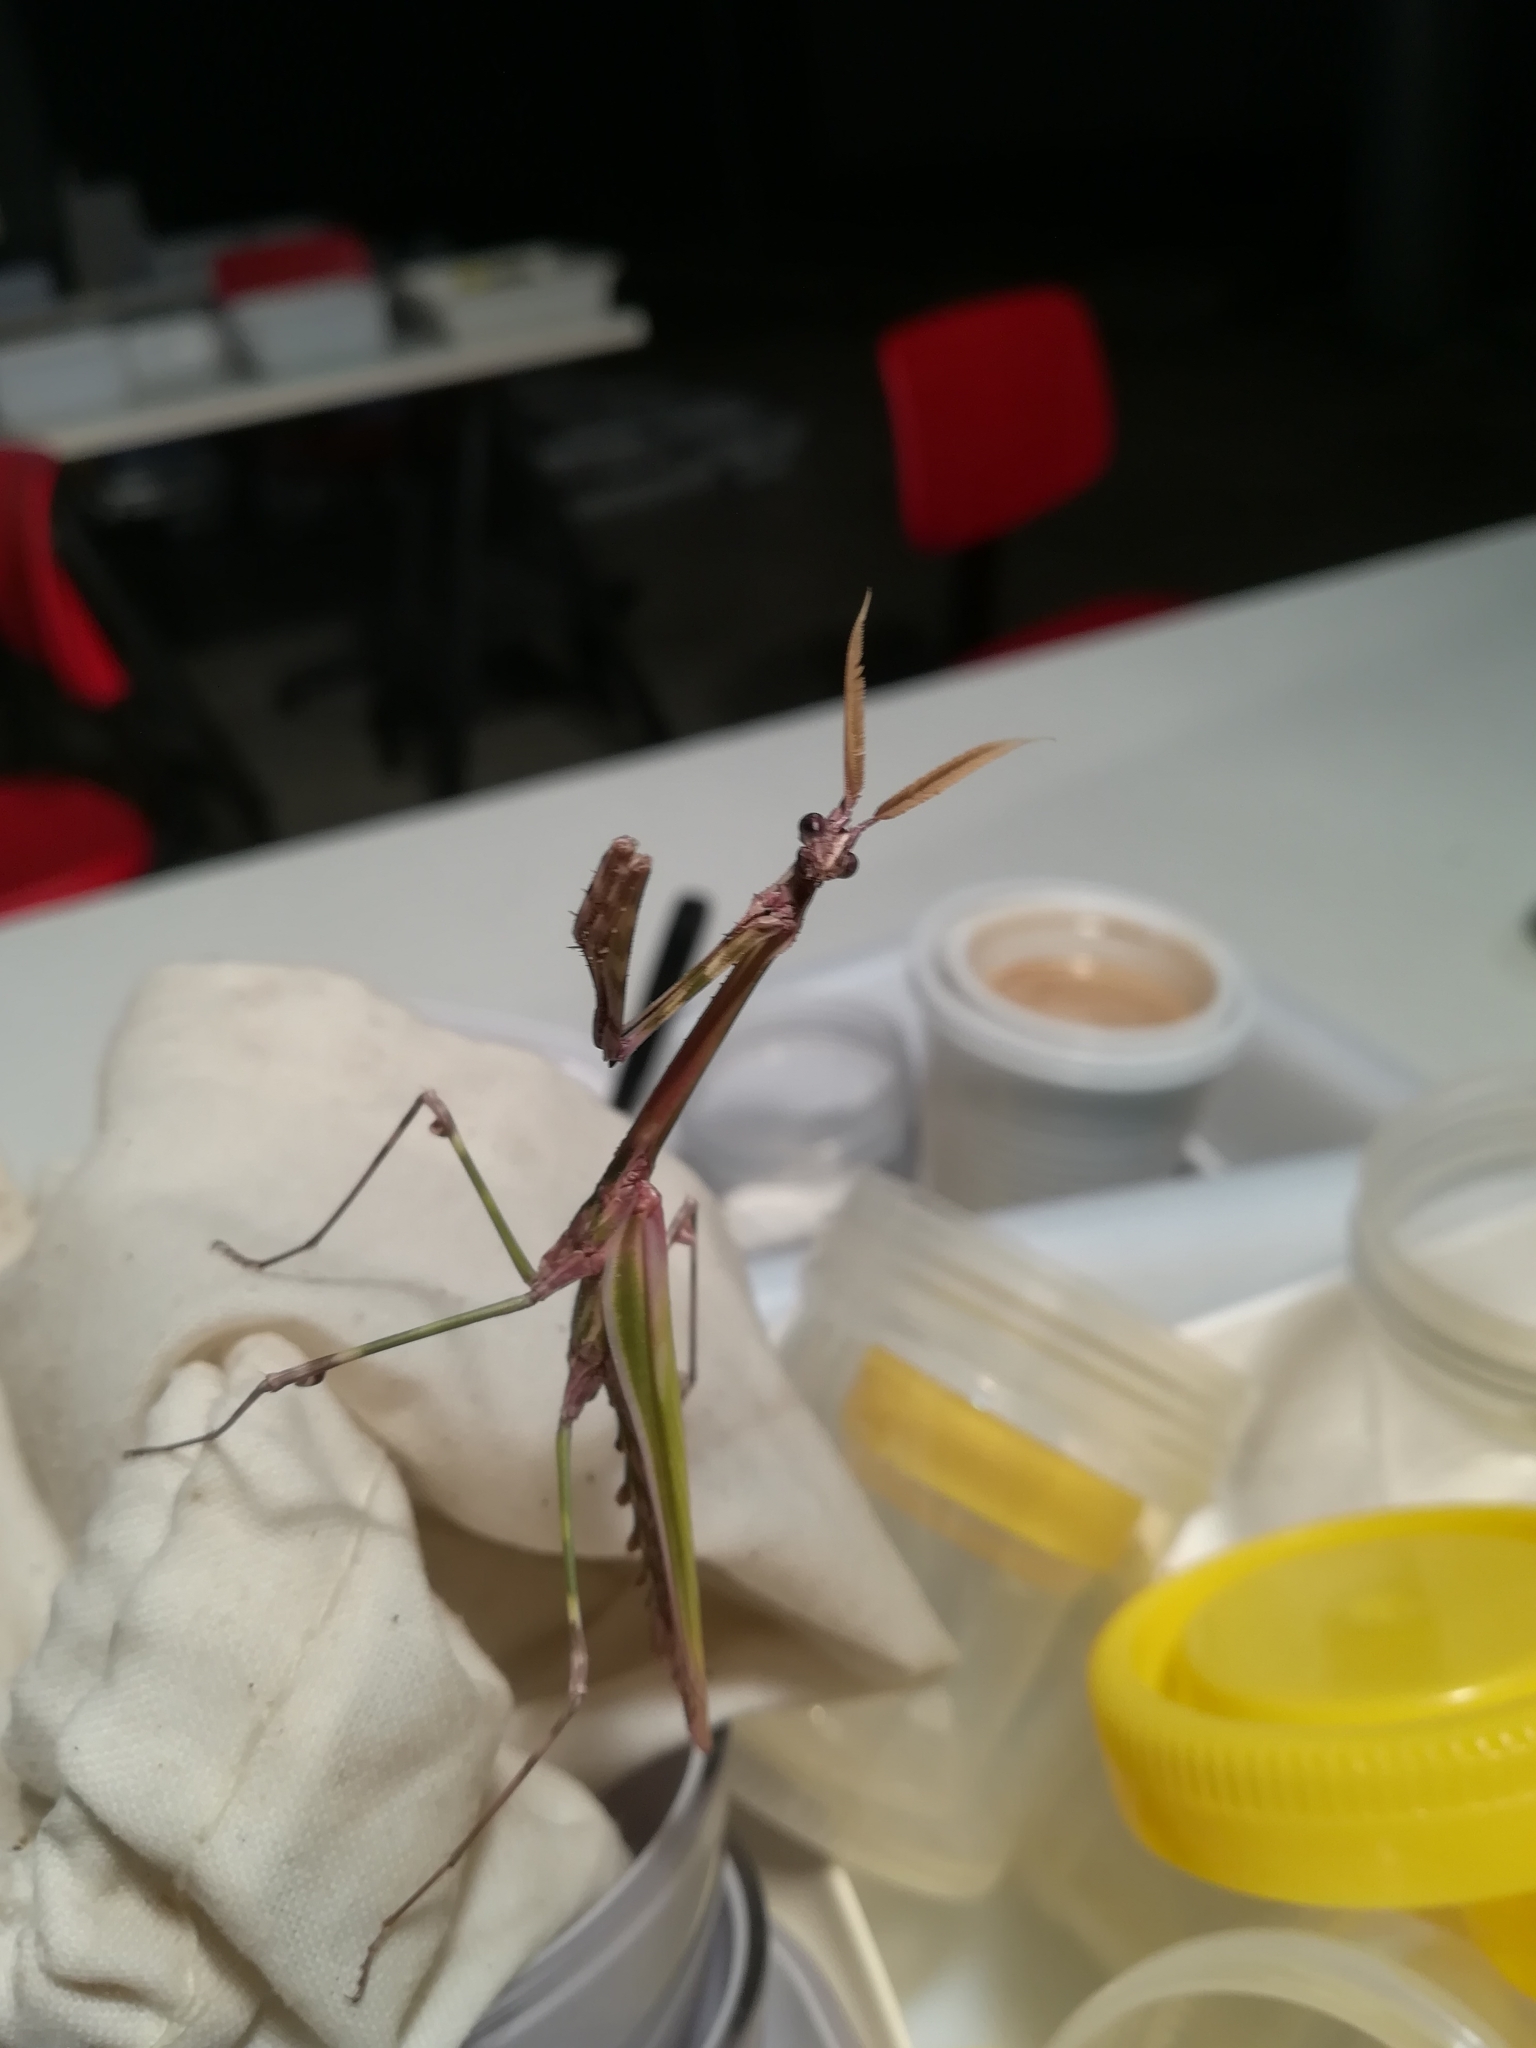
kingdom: Animalia
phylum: Arthropoda
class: Insecta
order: Mantodea
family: Empusidae
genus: Empusa
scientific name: Empusa pennata
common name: Conehead mantis
